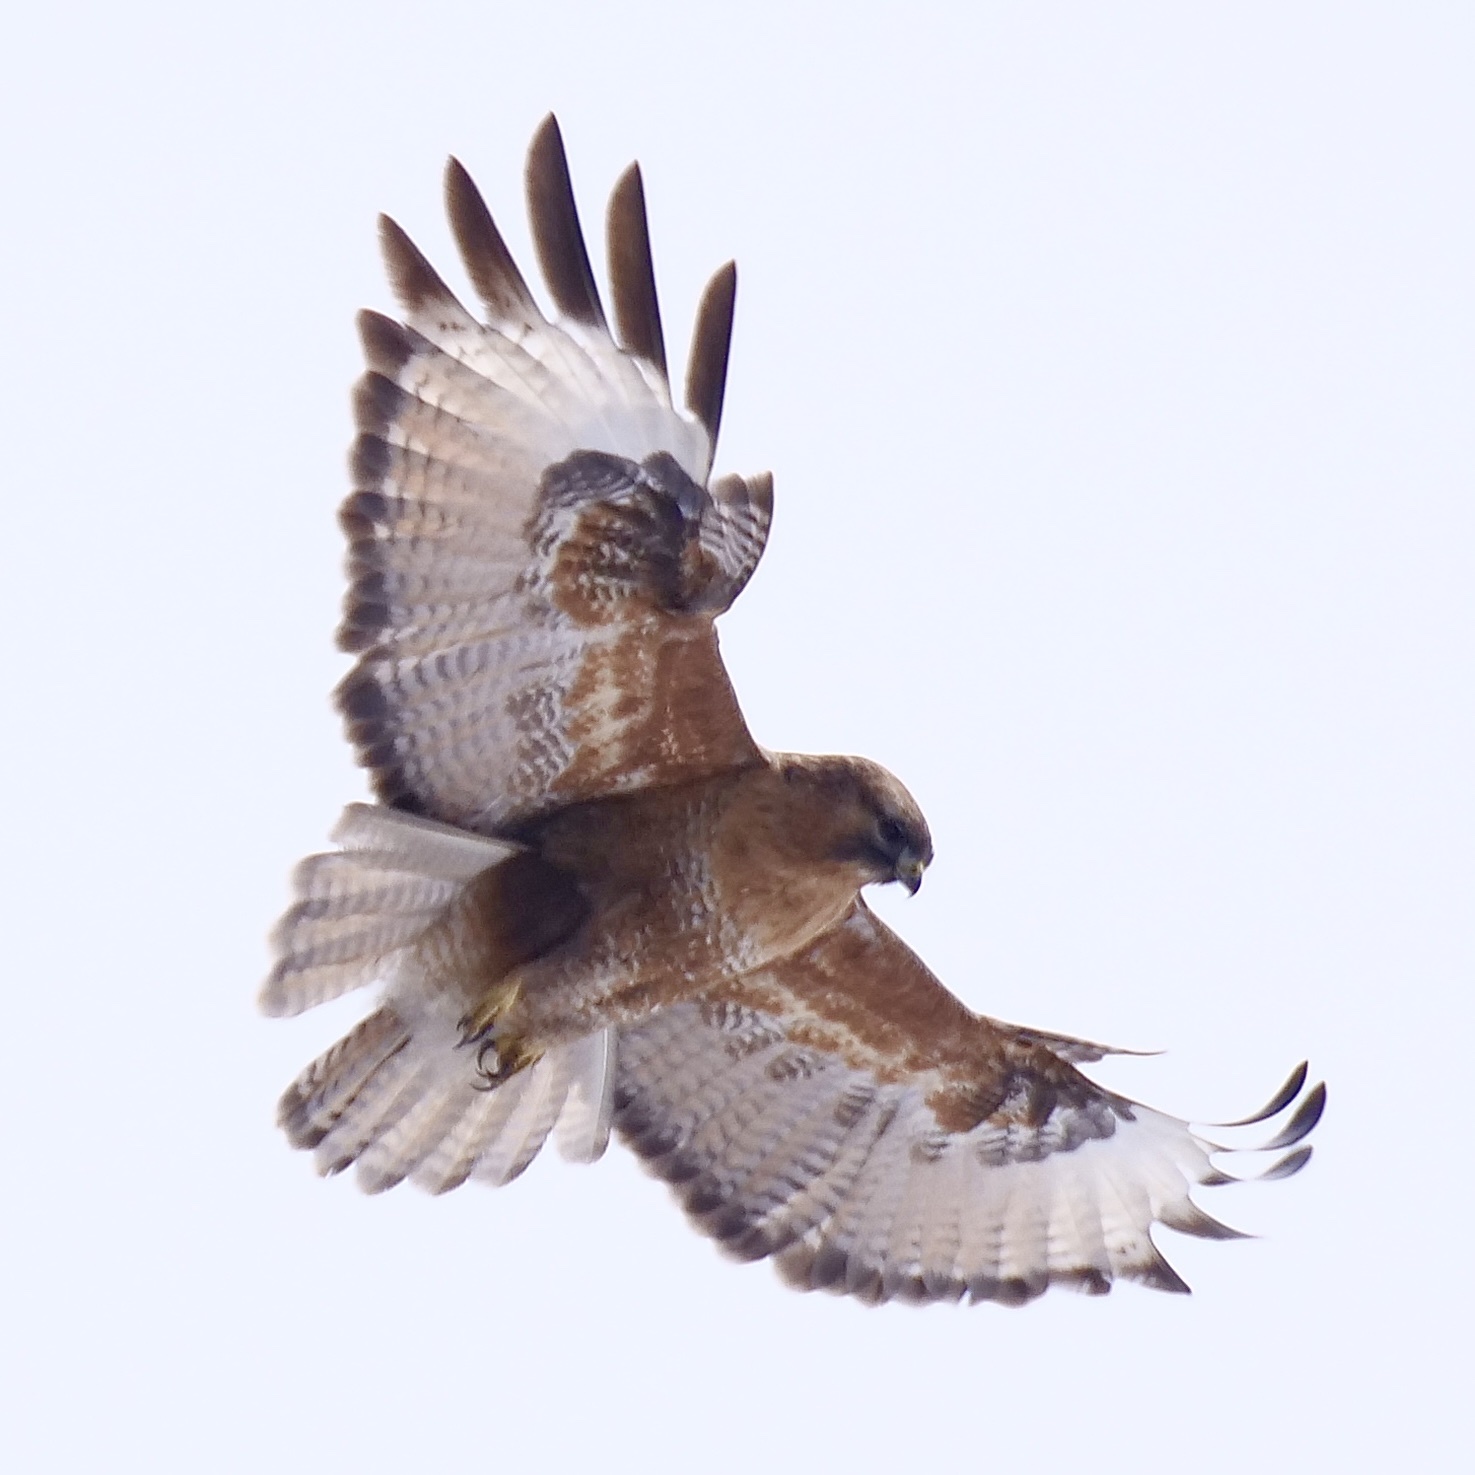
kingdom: Animalia
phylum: Chordata
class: Aves
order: Accipitriformes
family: Accipitridae
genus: Buteo
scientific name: Buteo refectus
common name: Himalayan buzzard
